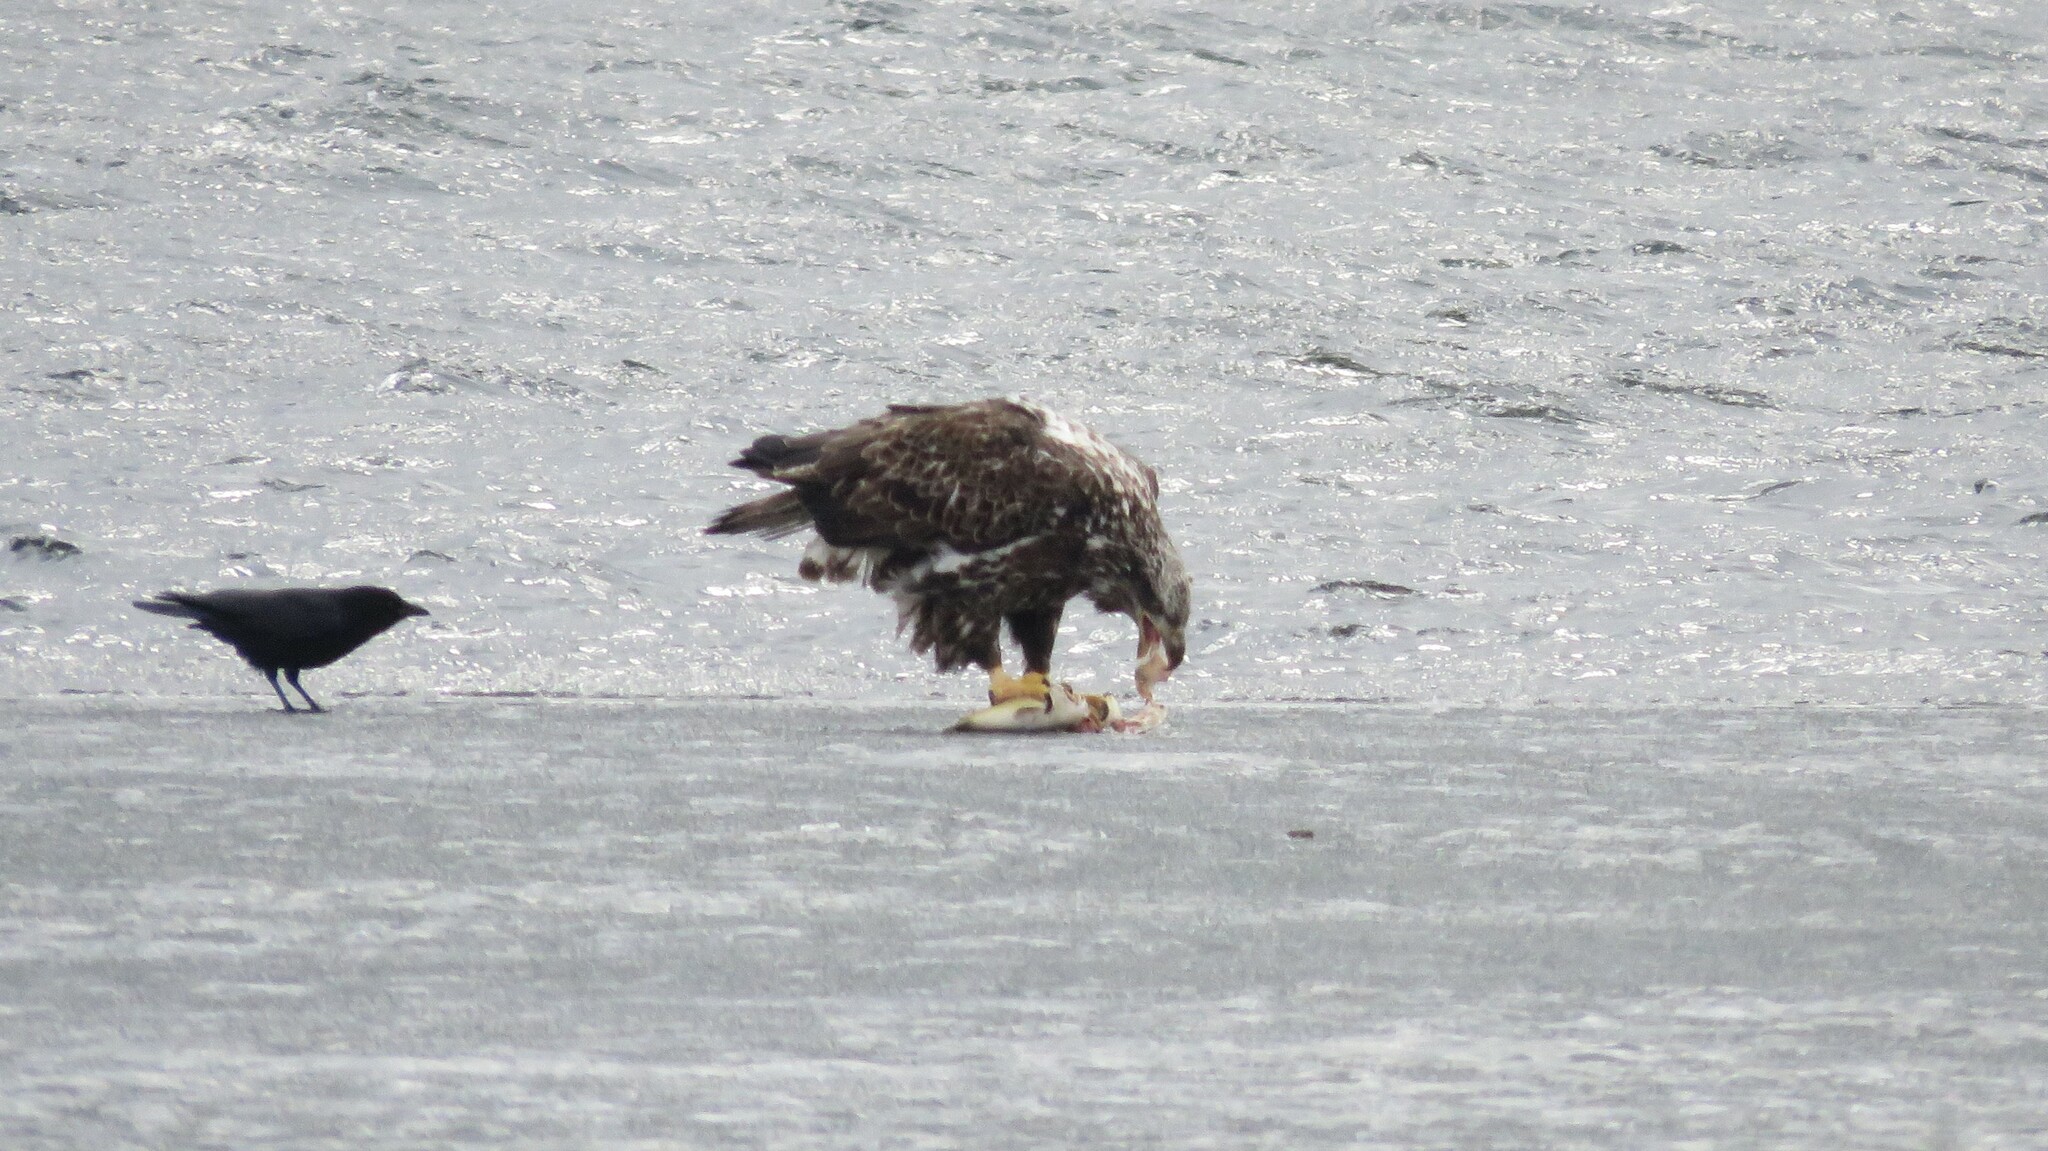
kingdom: Animalia
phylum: Chordata
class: Aves
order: Accipitriformes
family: Accipitridae
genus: Haliaeetus
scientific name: Haliaeetus leucocephalus
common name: Bald eagle
